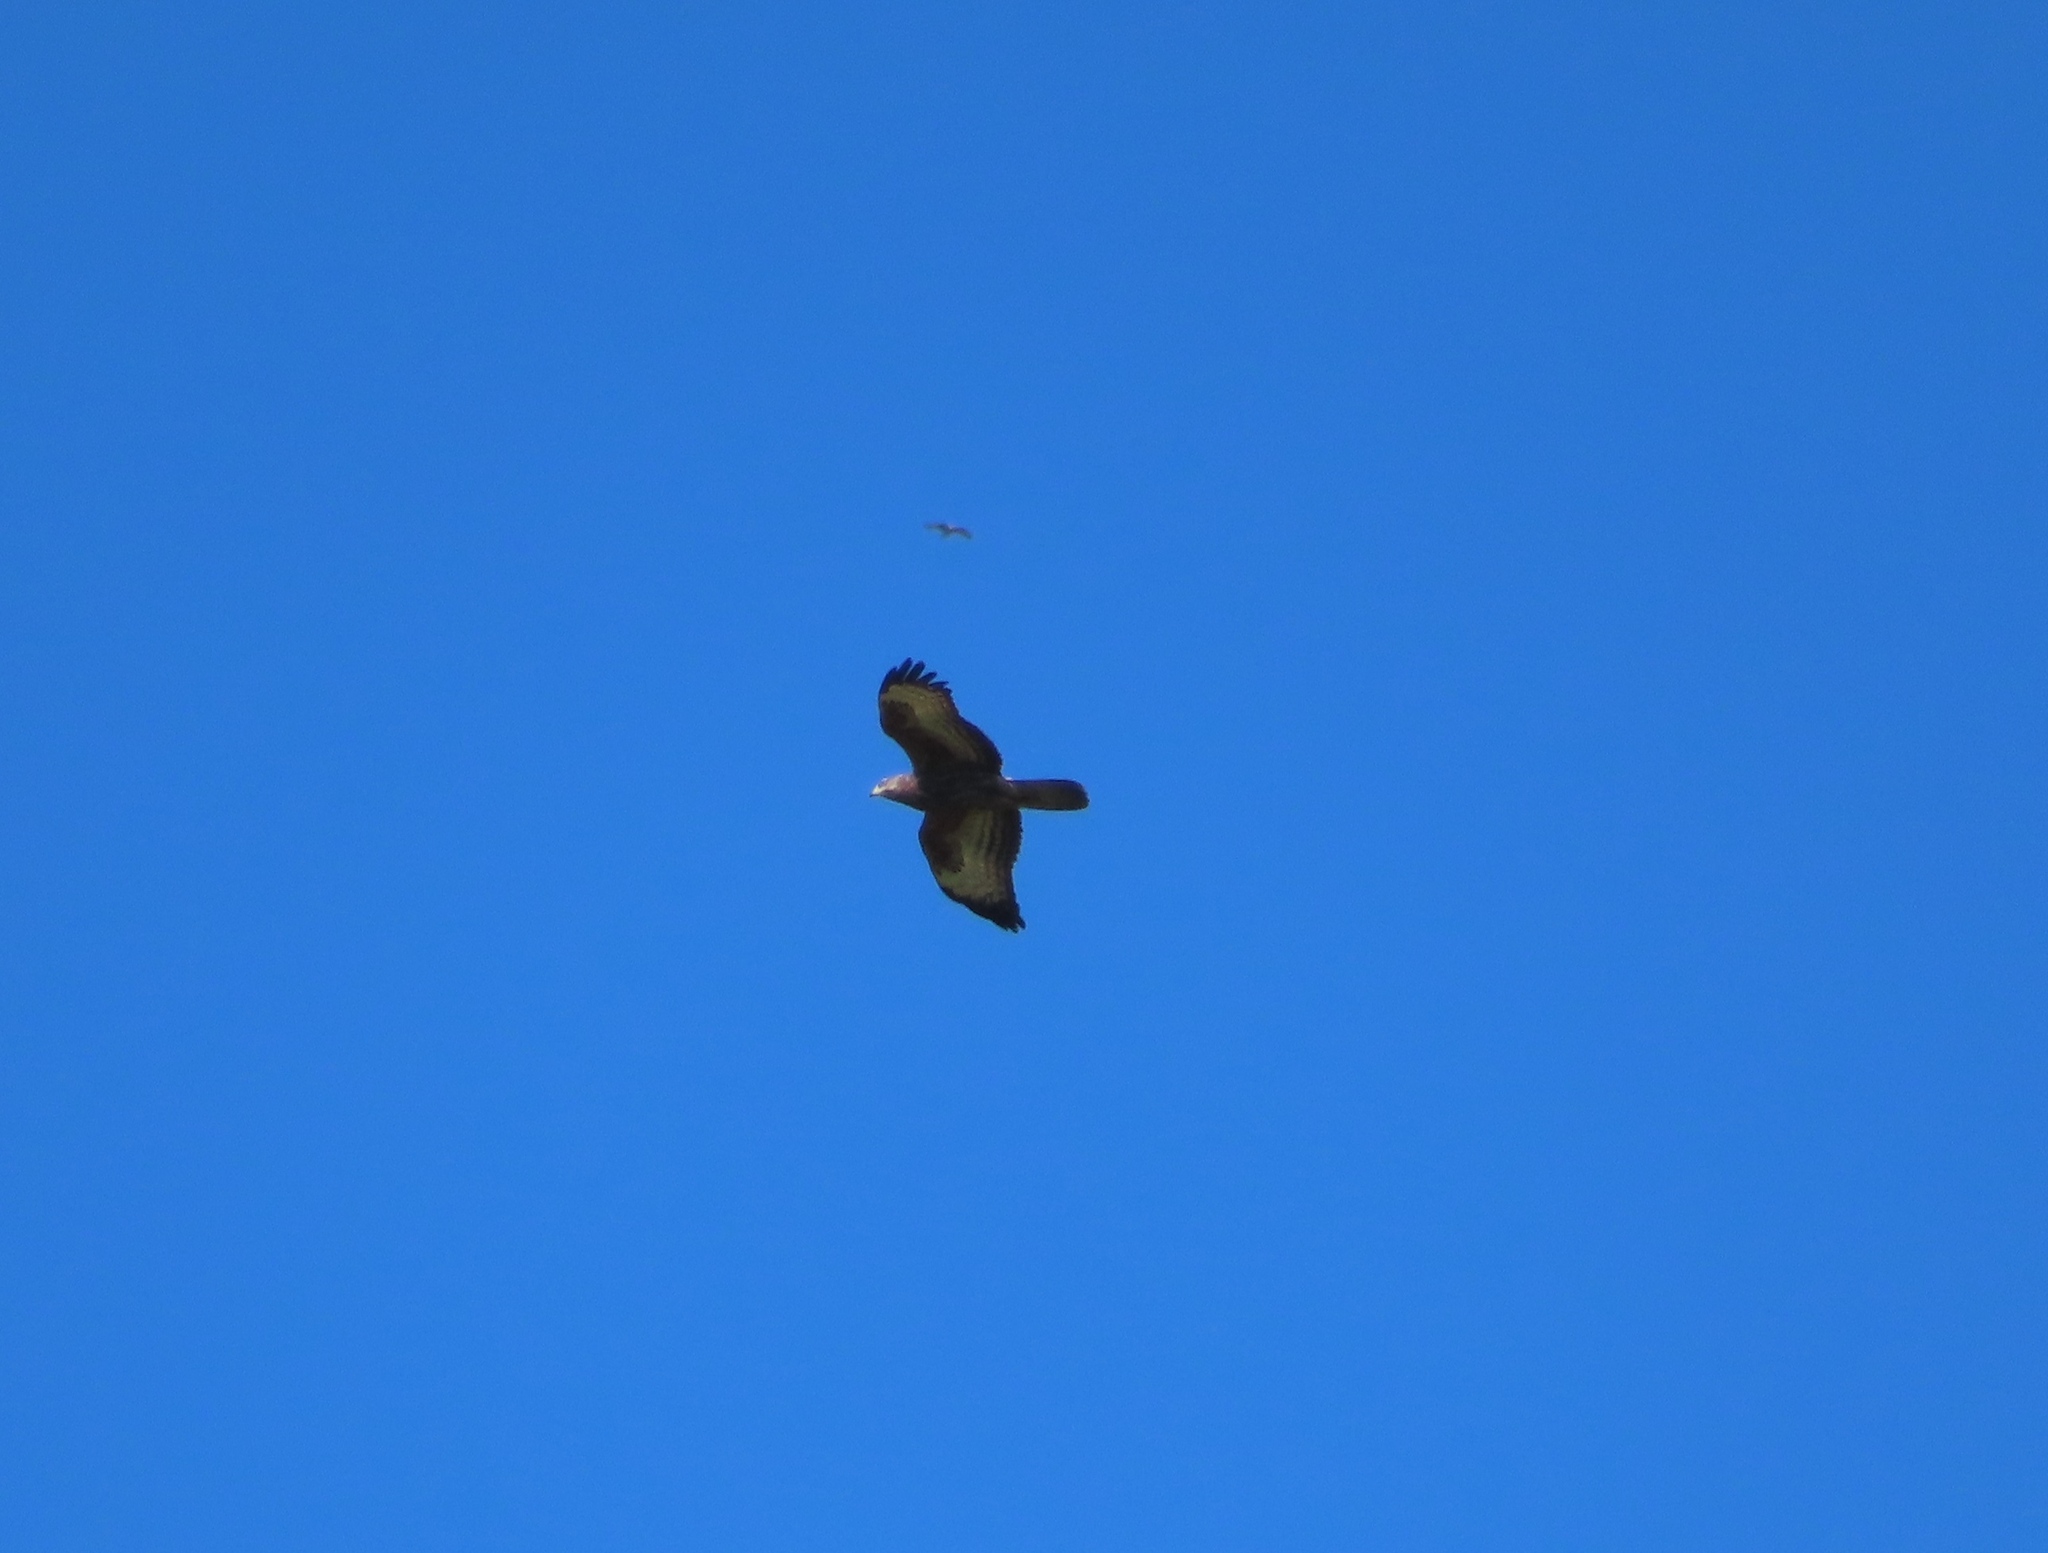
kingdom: Animalia
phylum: Chordata
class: Aves
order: Accipitriformes
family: Accipitridae
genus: Pernis
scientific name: Pernis apivorus
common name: European honey buzzard
